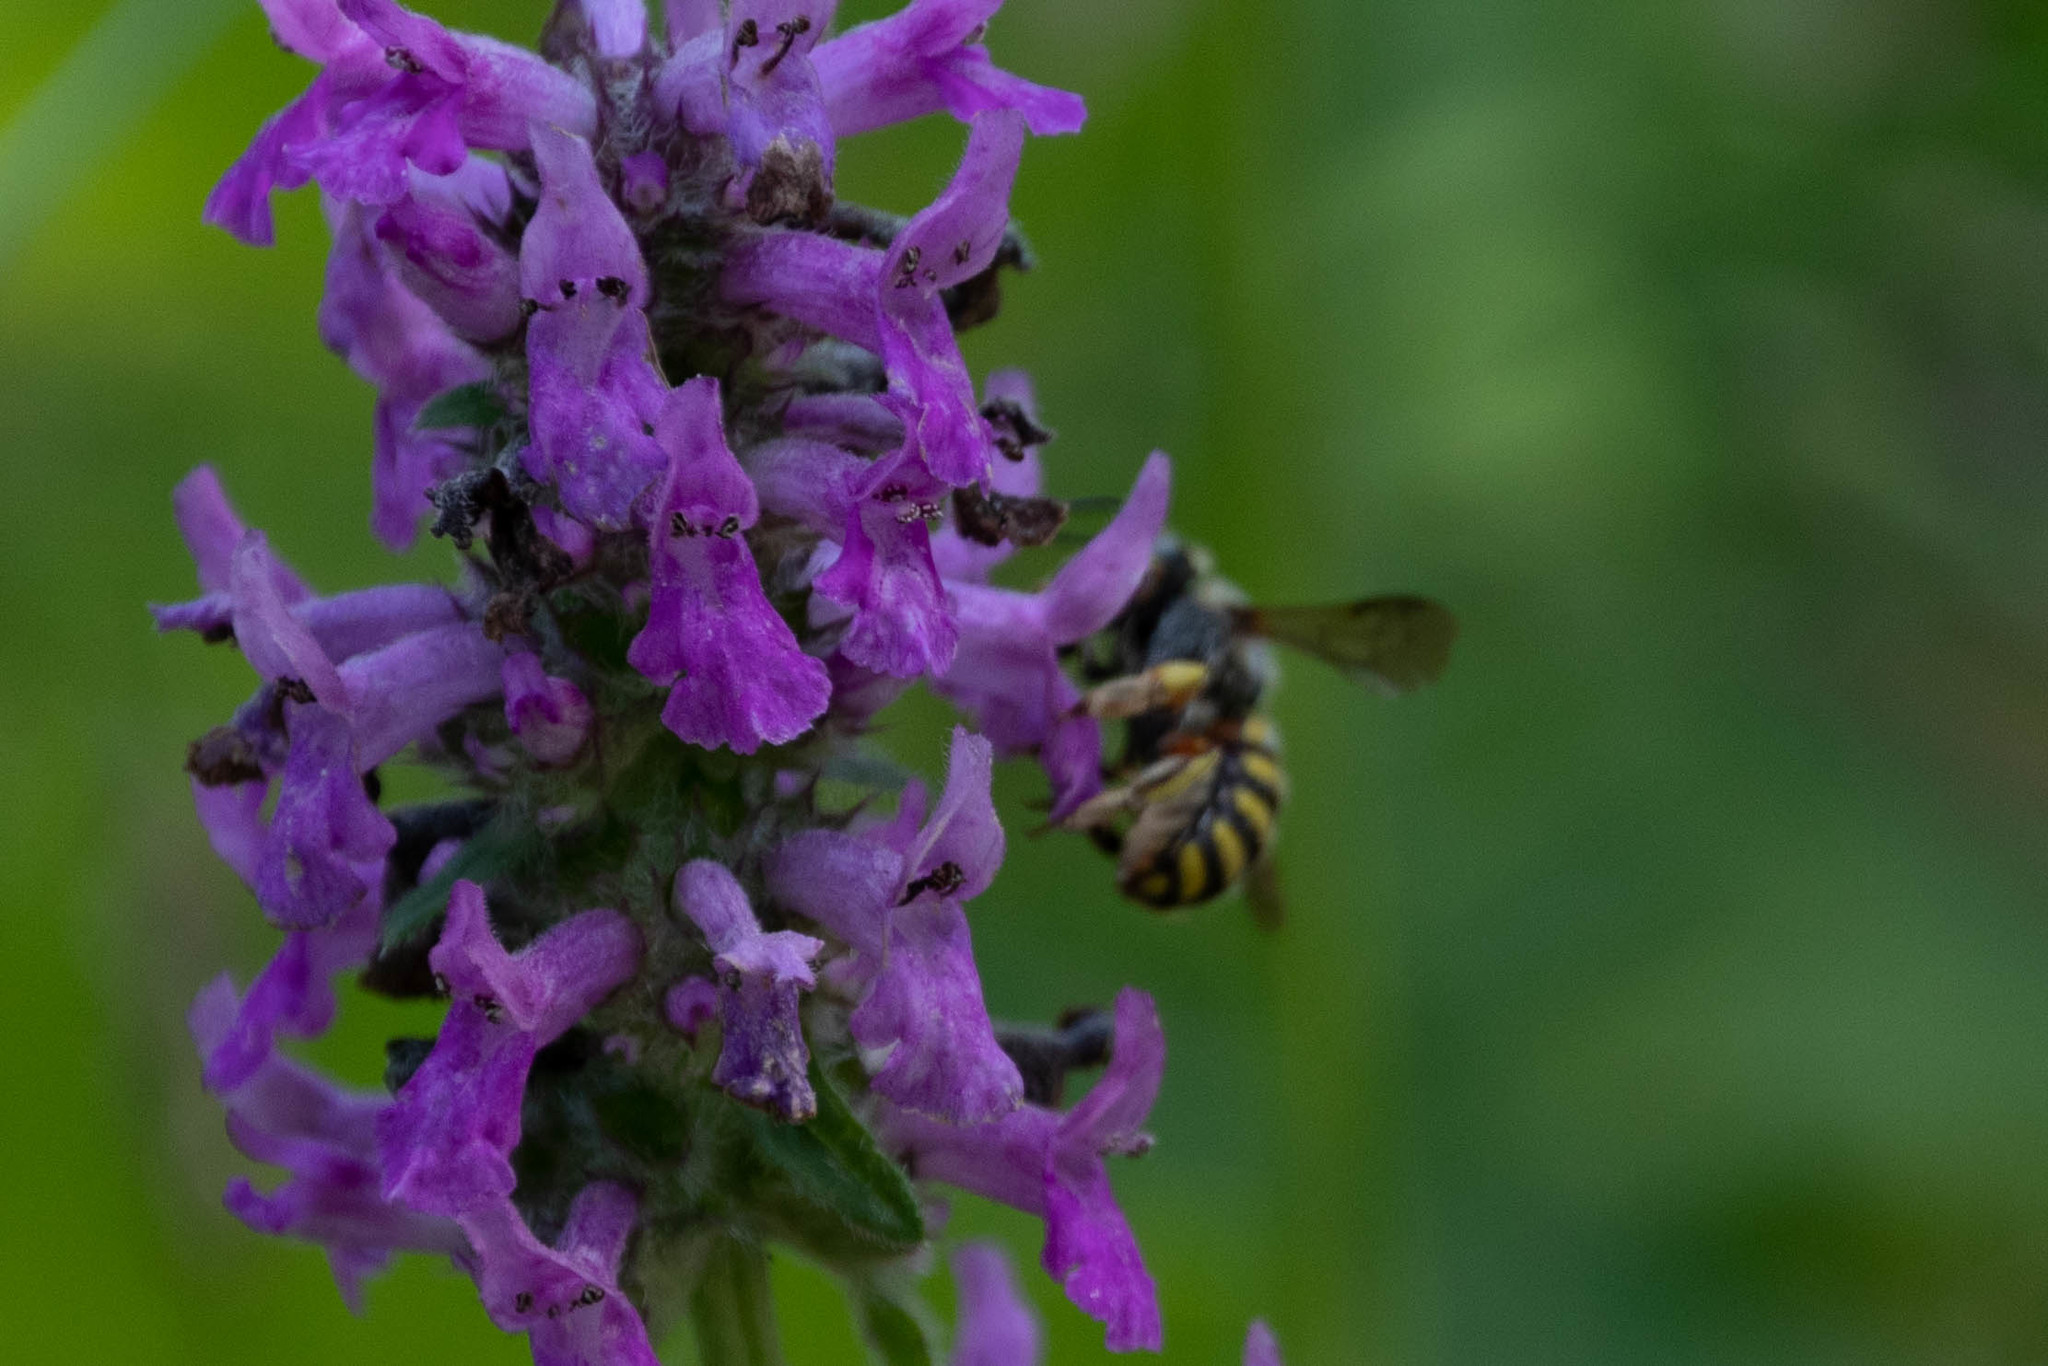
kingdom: Animalia
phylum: Arthropoda
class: Insecta
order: Hymenoptera
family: Megachilidae
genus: Anthidium
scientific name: Anthidium manicatum
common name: Wool carder bee
